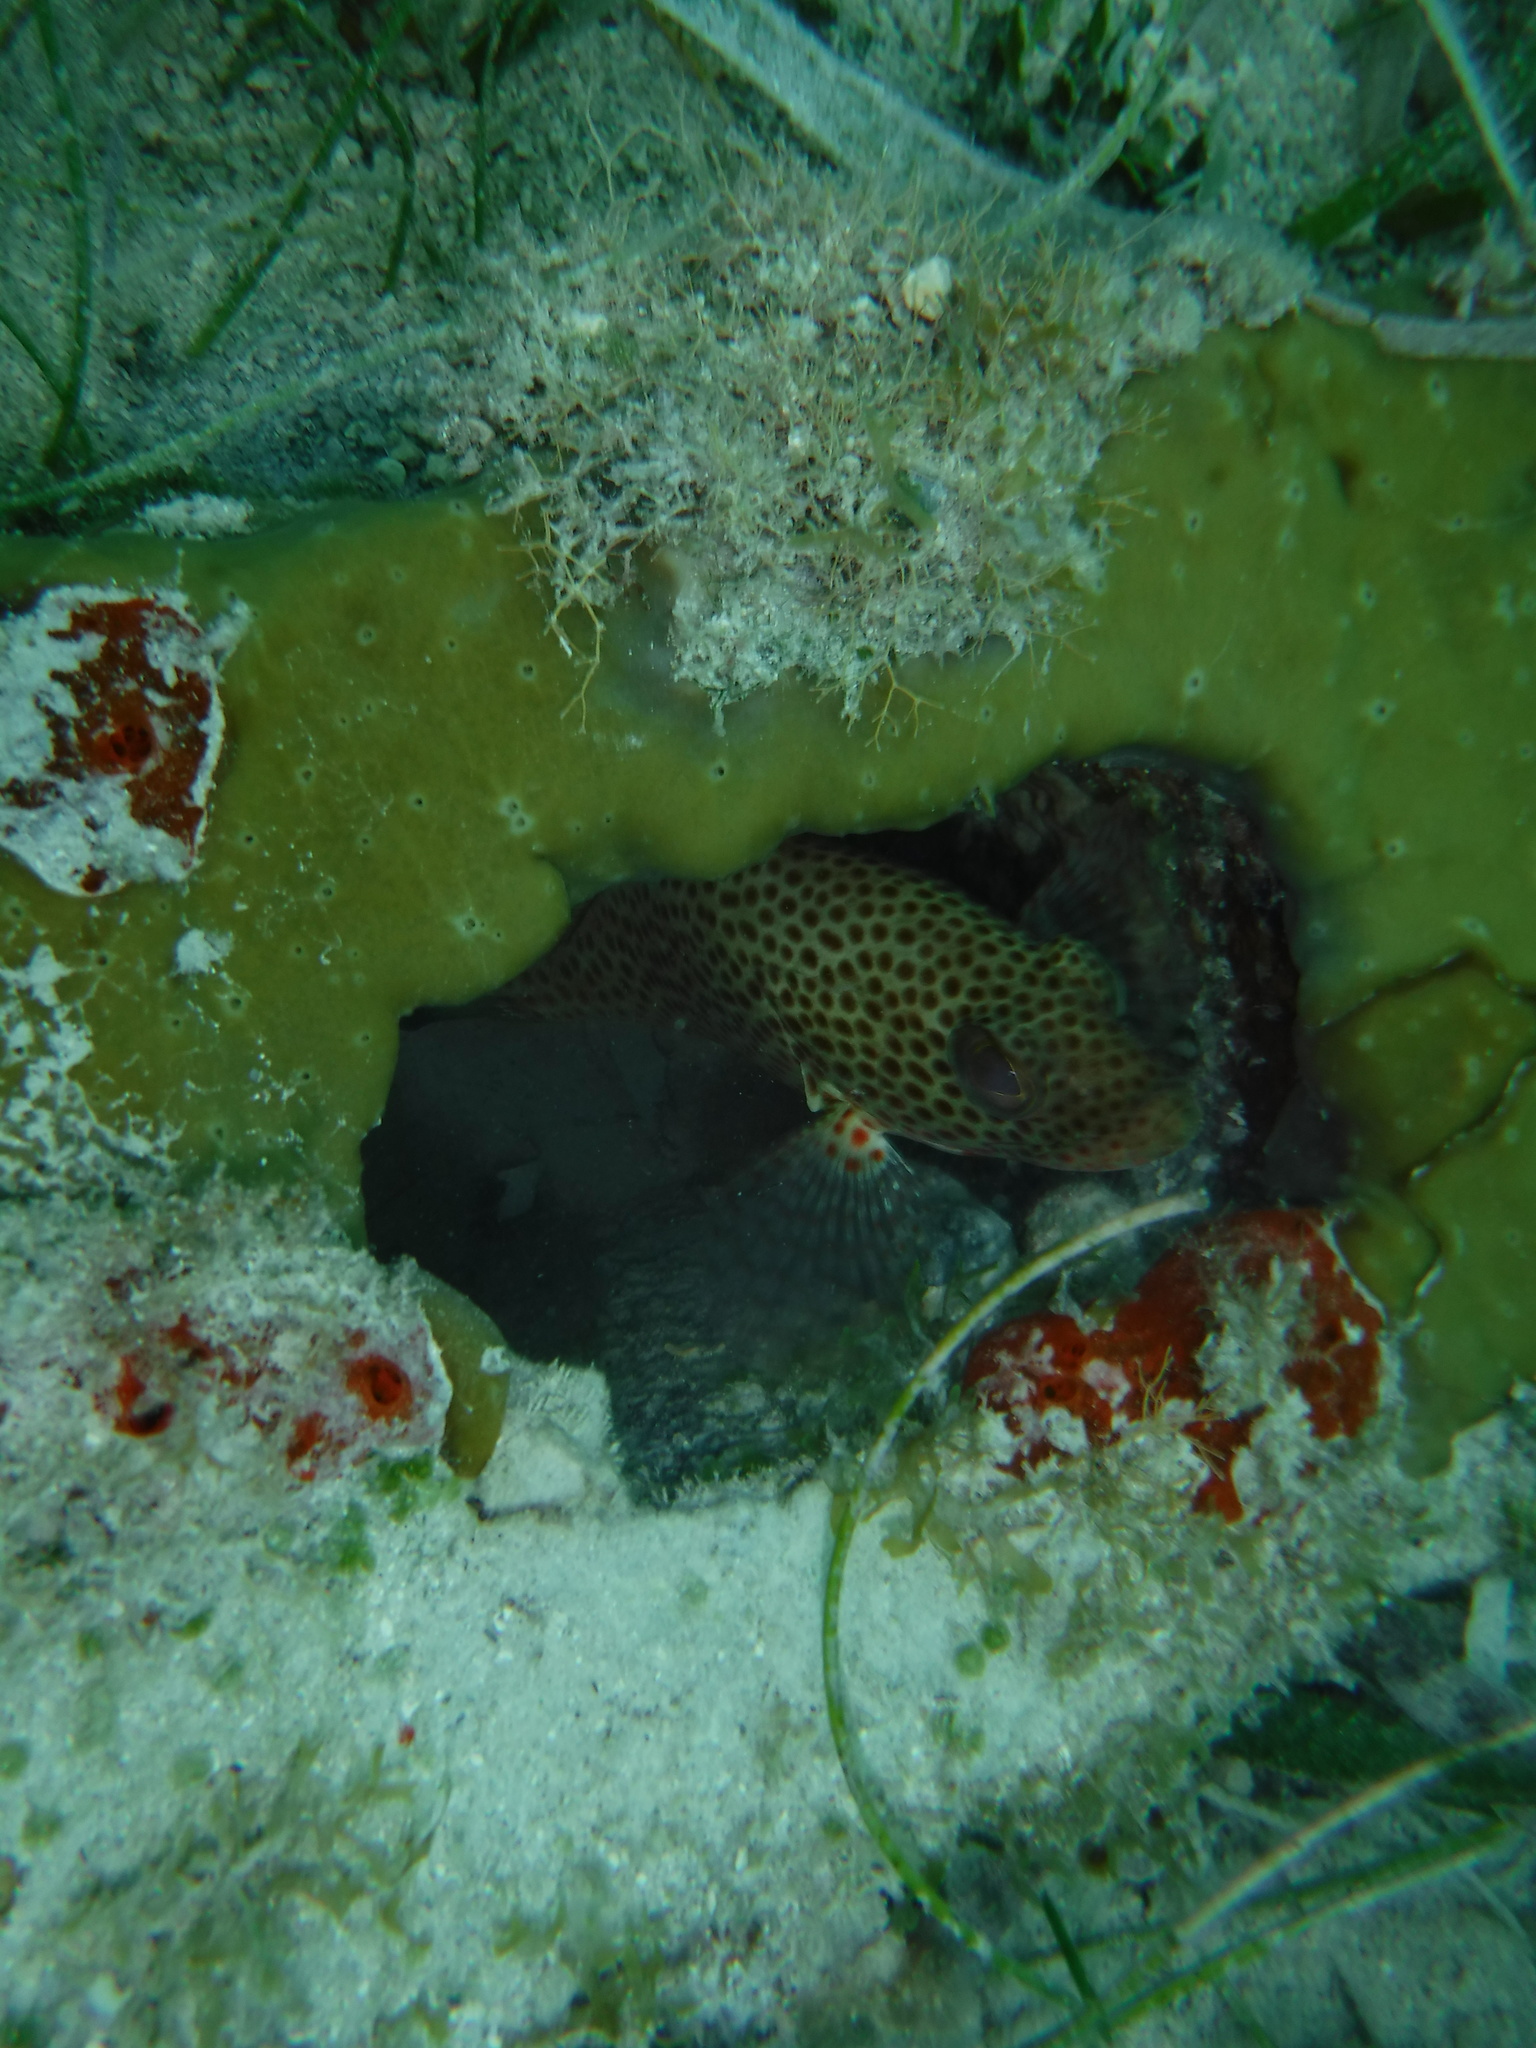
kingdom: Animalia
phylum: Chordata
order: Perciformes
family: Serranidae
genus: Epinephelus
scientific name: Epinephelus guttatus
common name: Red hind
